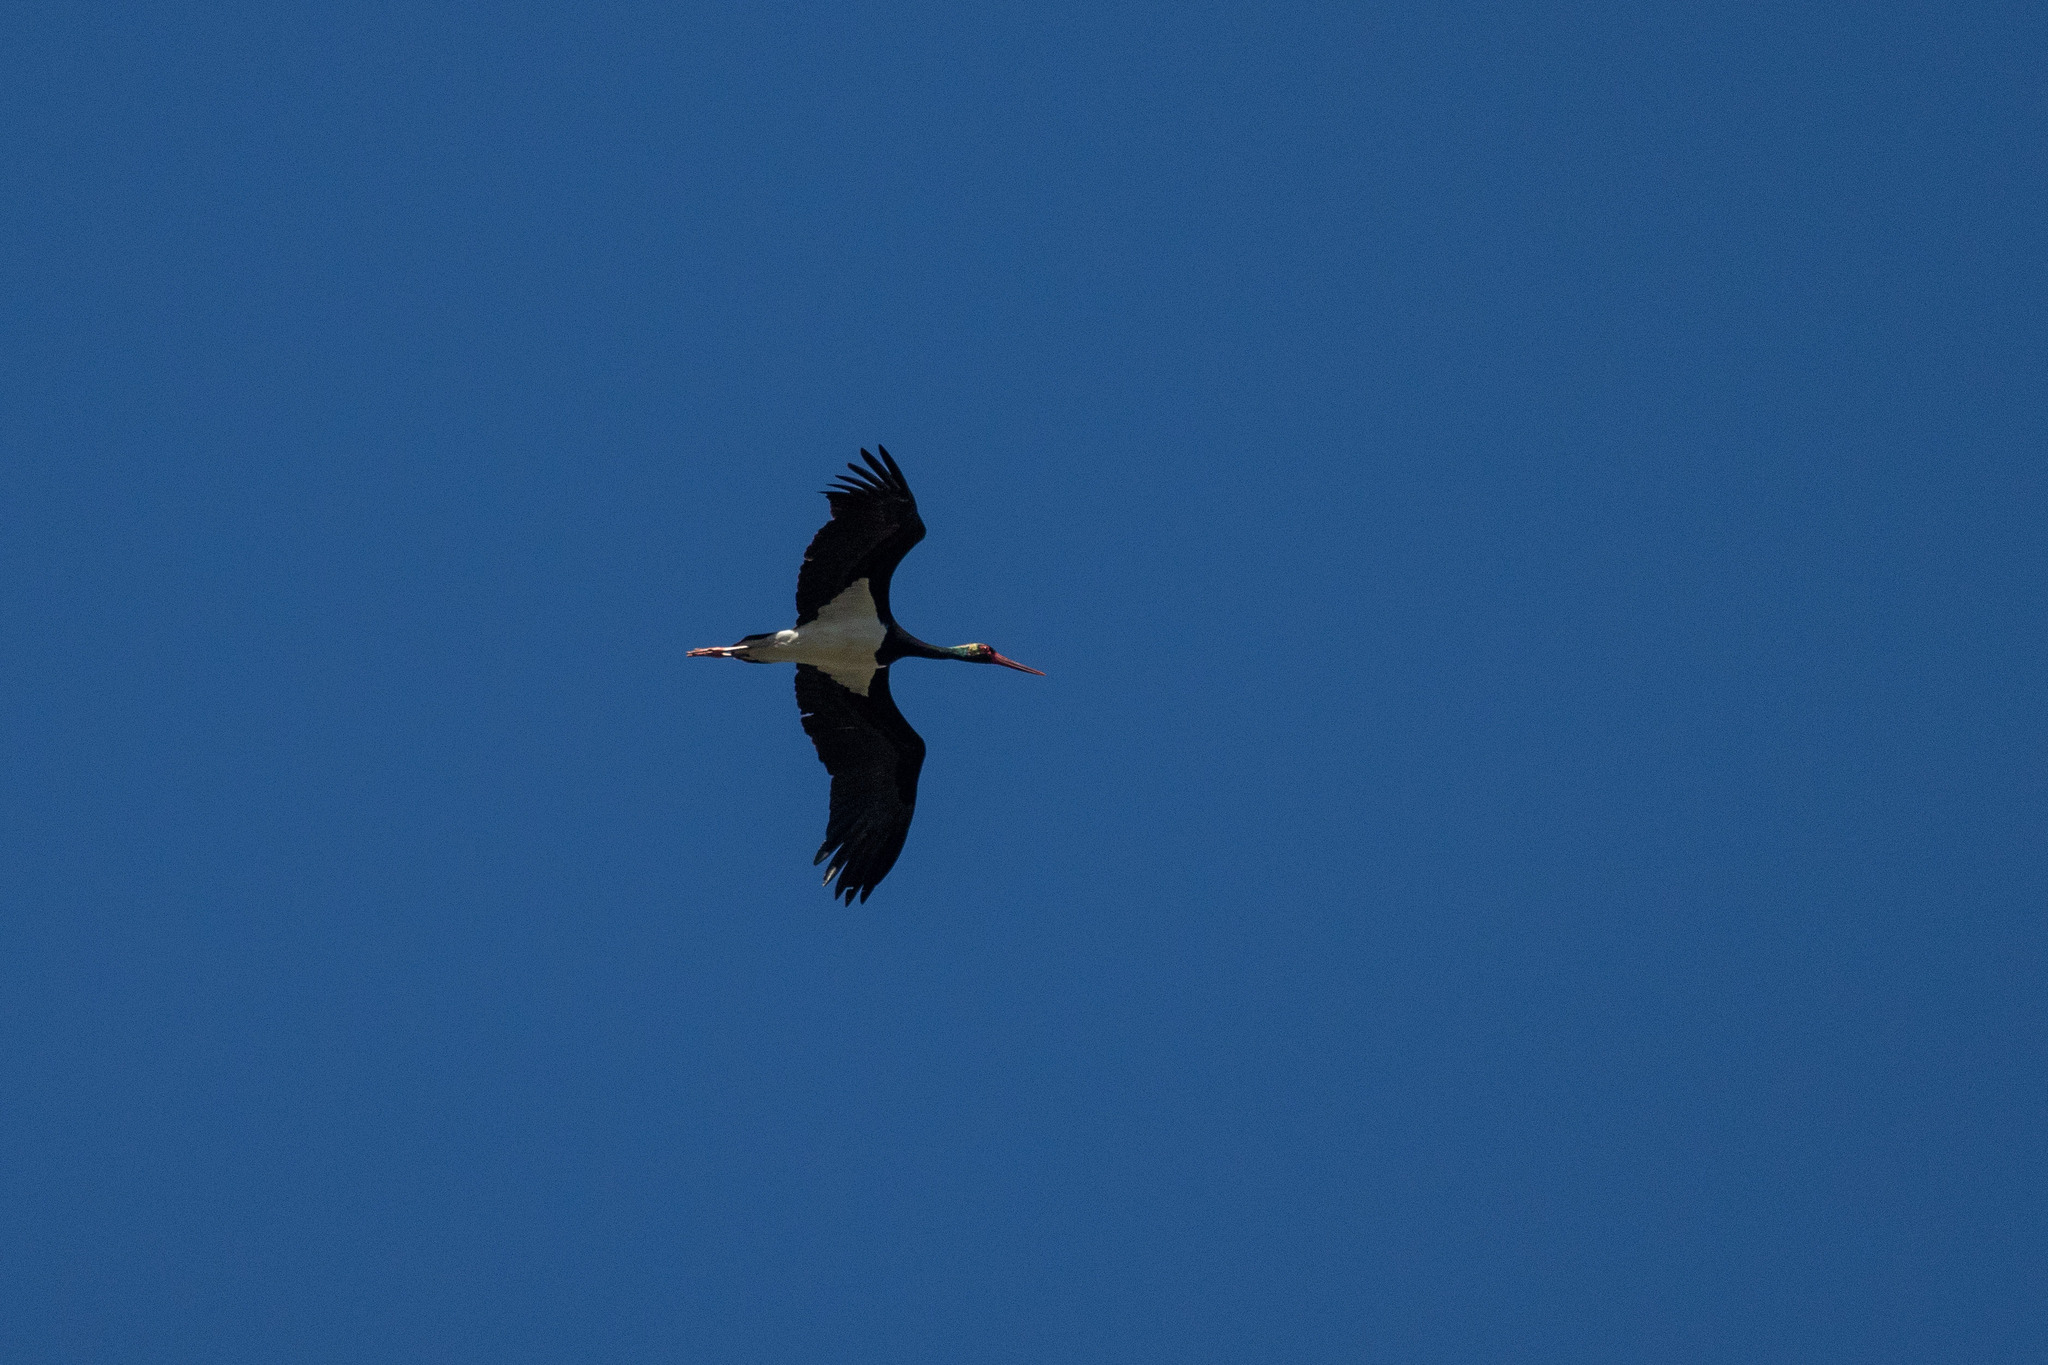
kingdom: Animalia
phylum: Chordata
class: Aves
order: Ciconiiformes
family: Ciconiidae
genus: Ciconia
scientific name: Ciconia nigra
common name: Black stork
